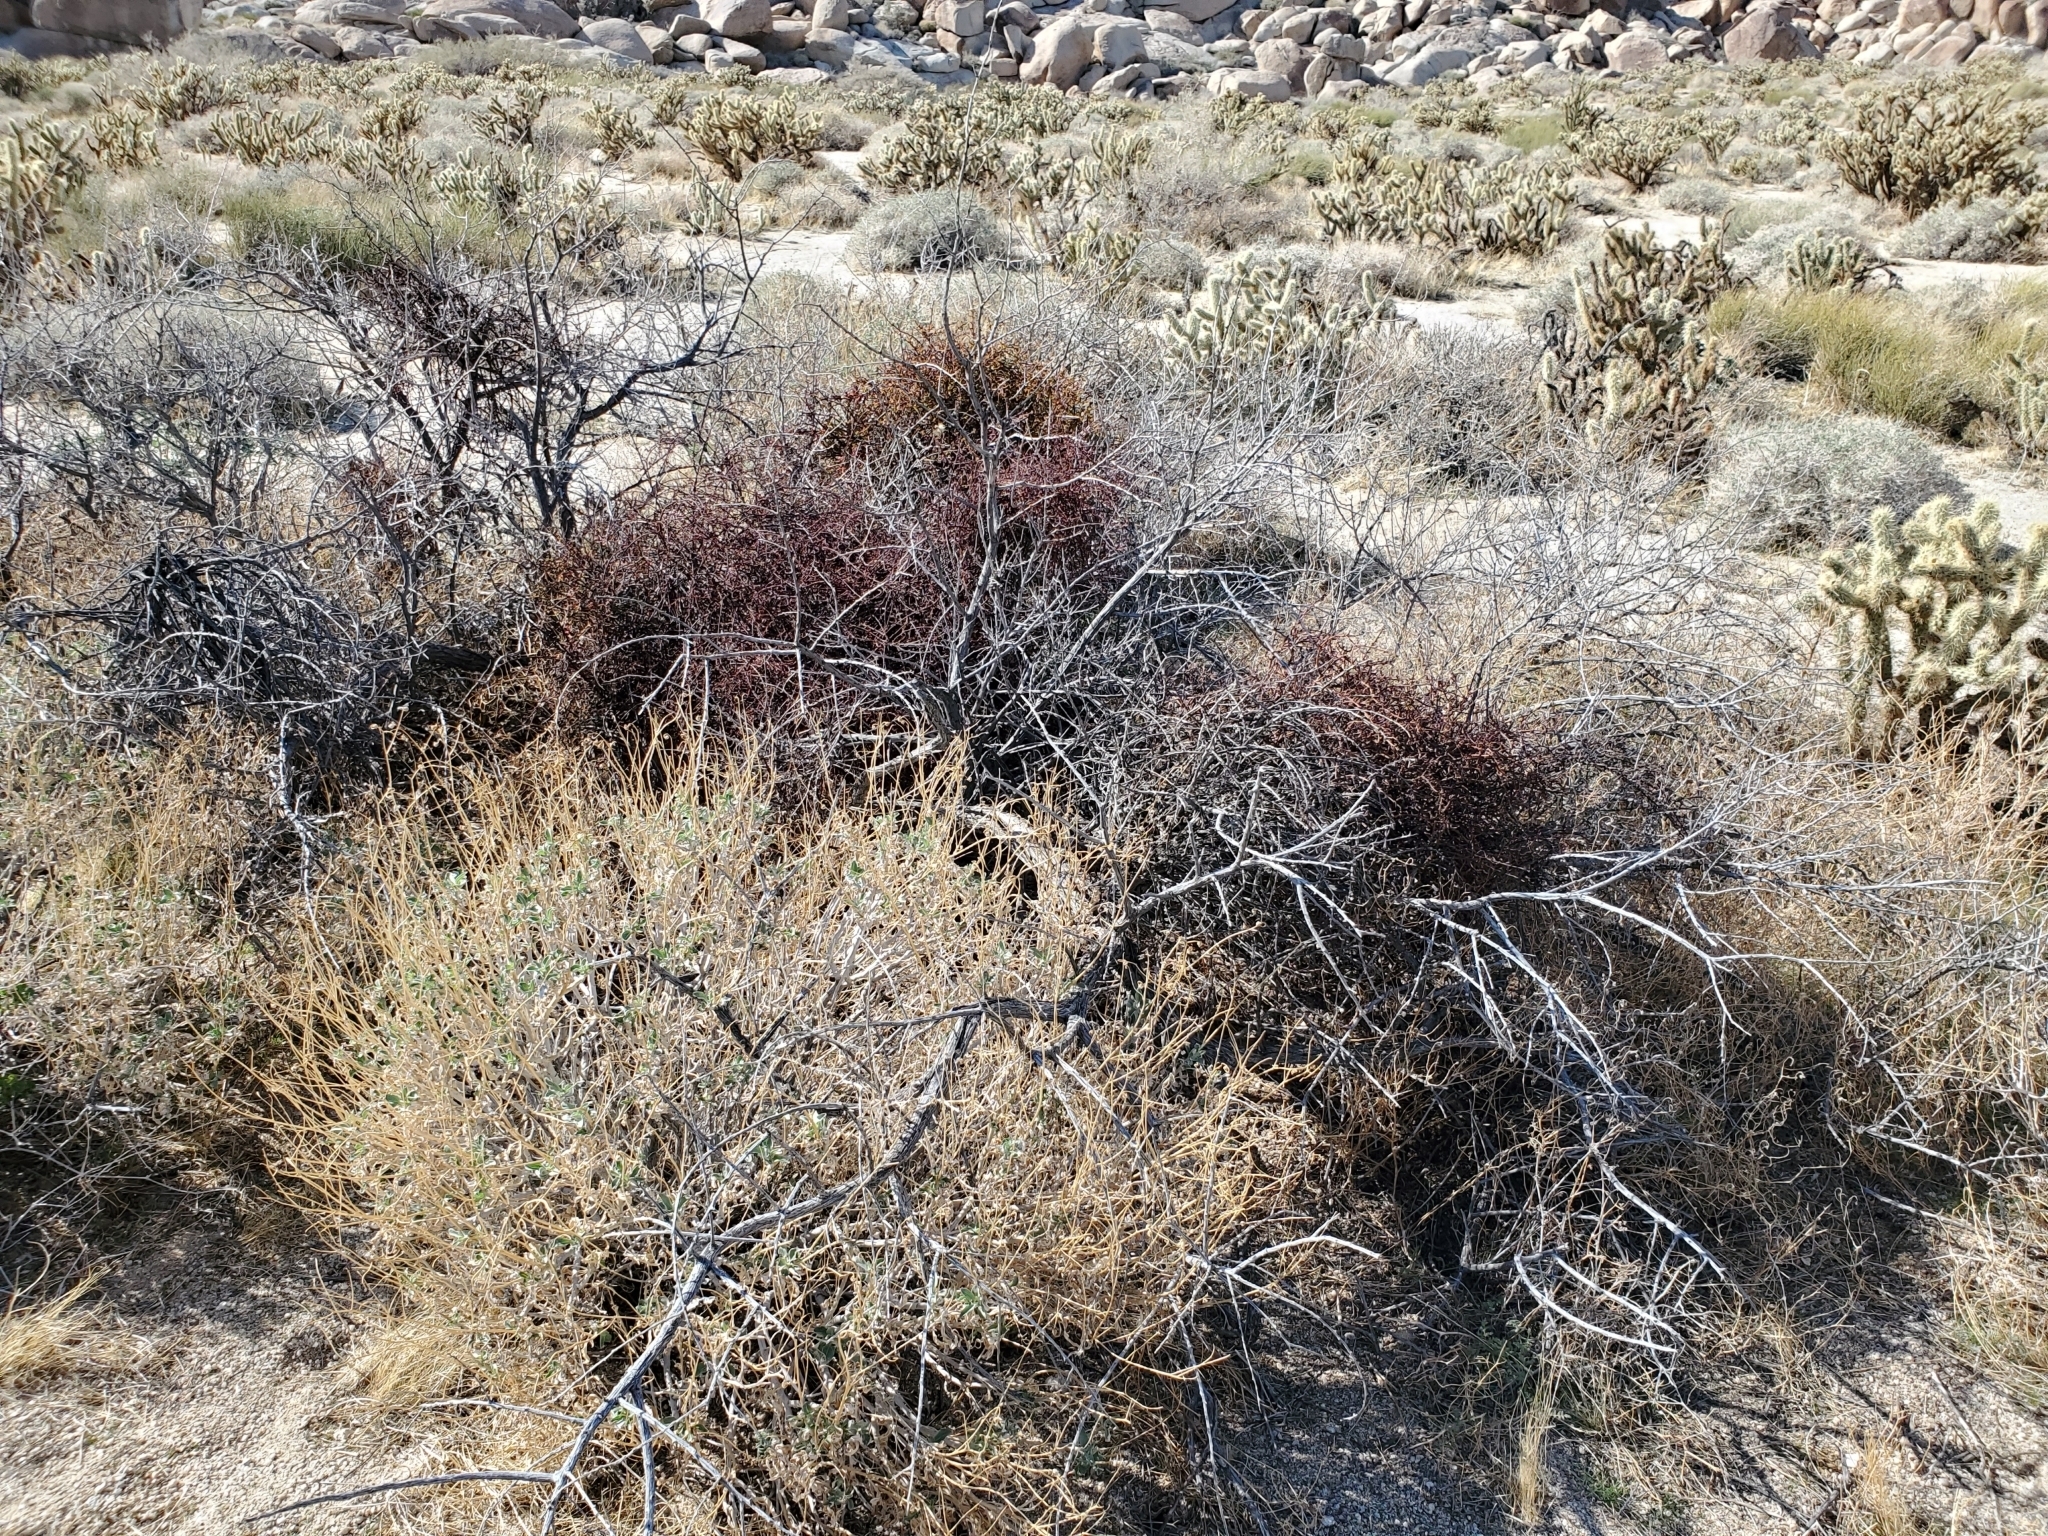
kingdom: Plantae
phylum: Tracheophyta
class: Magnoliopsida
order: Fabales
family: Fabaceae
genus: Senegalia
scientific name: Senegalia greggii
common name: Texas-mimosa
